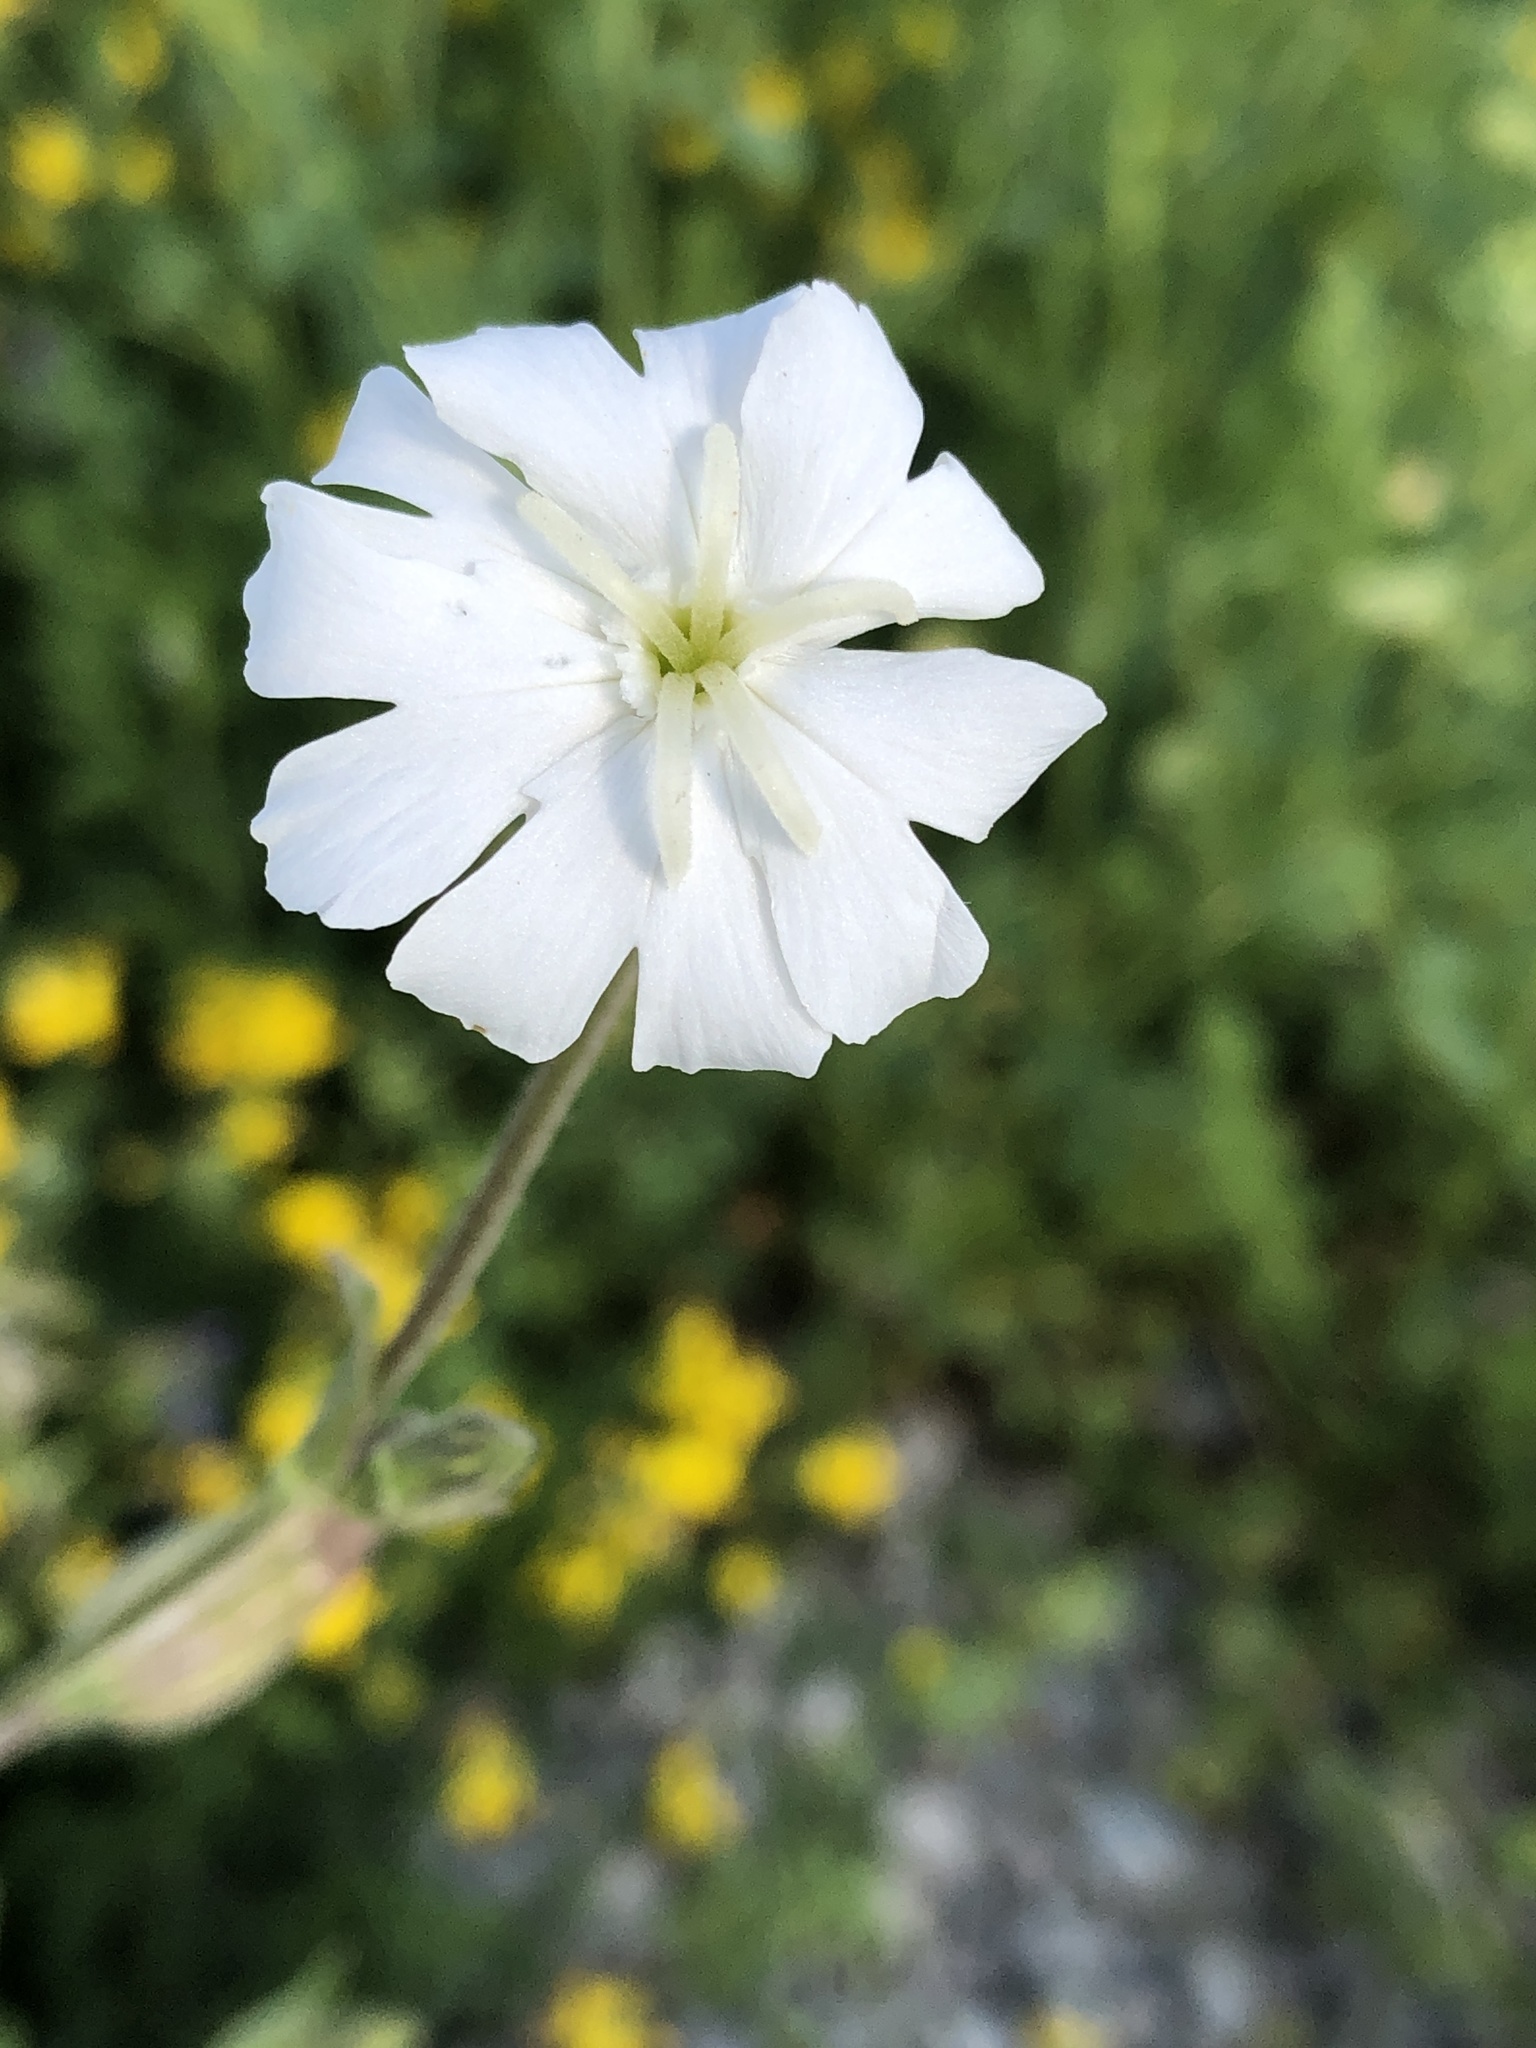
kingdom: Plantae
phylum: Tracheophyta
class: Magnoliopsida
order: Caryophyllales
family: Caryophyllaceae
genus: Silene
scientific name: Silene latifolia
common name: White campion
